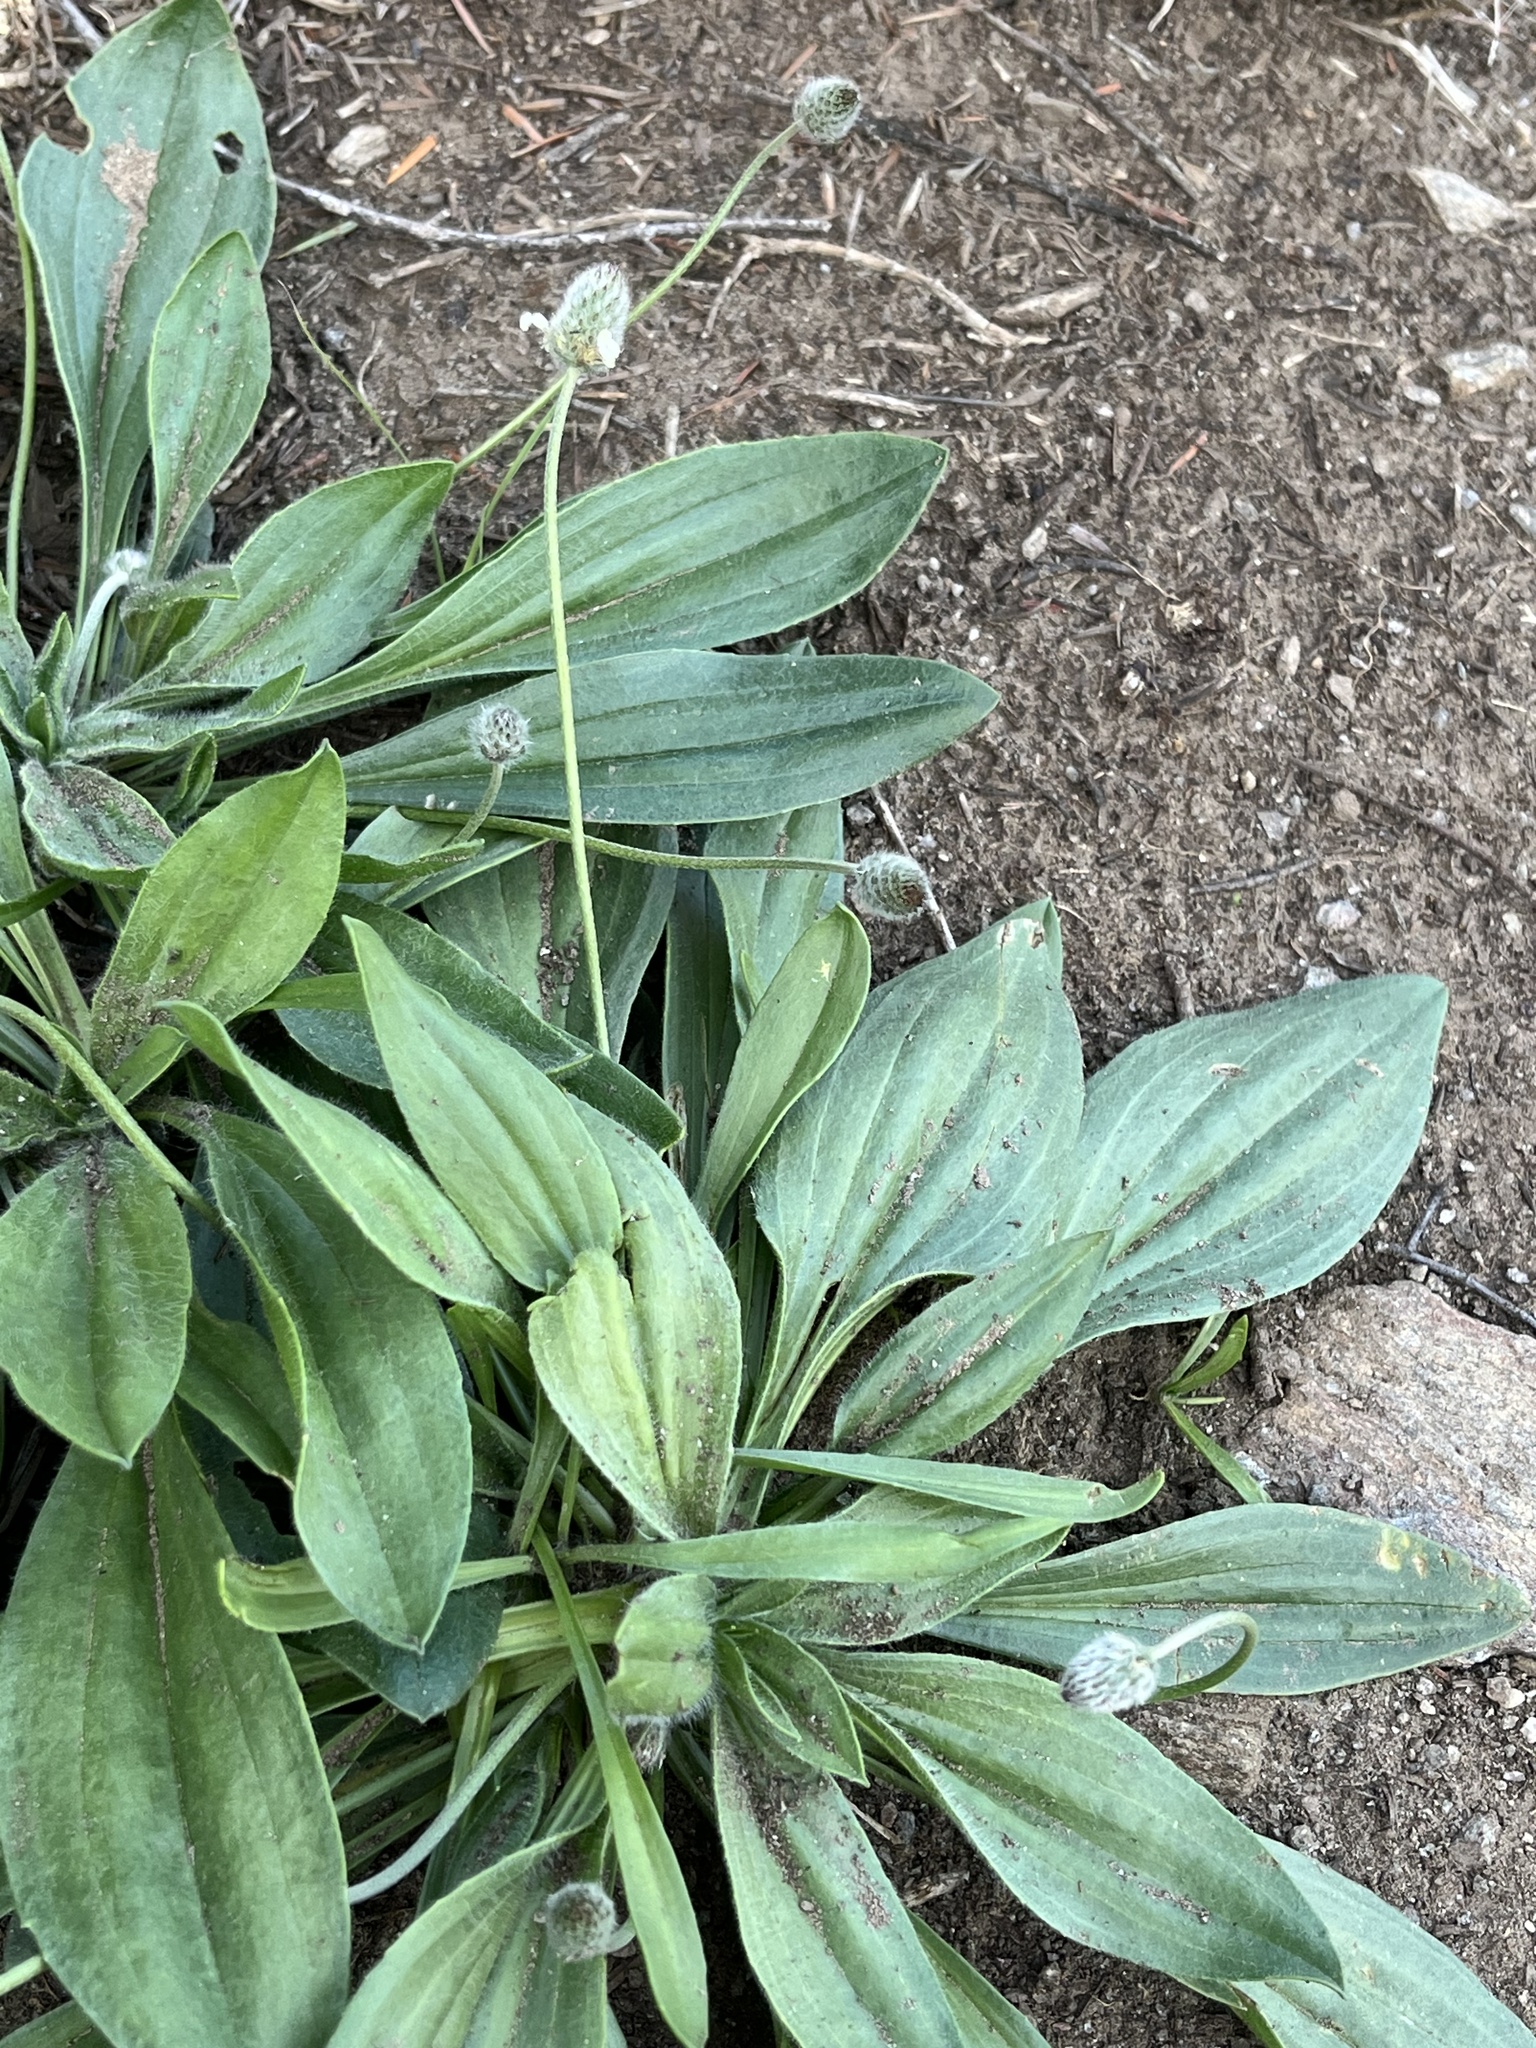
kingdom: Plantae
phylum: Tracheophyta
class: Magnoliopsida
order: Lamiales
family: Plantaginaceae
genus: Plantago
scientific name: Plantago lagopus
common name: Hare-foot plantain
